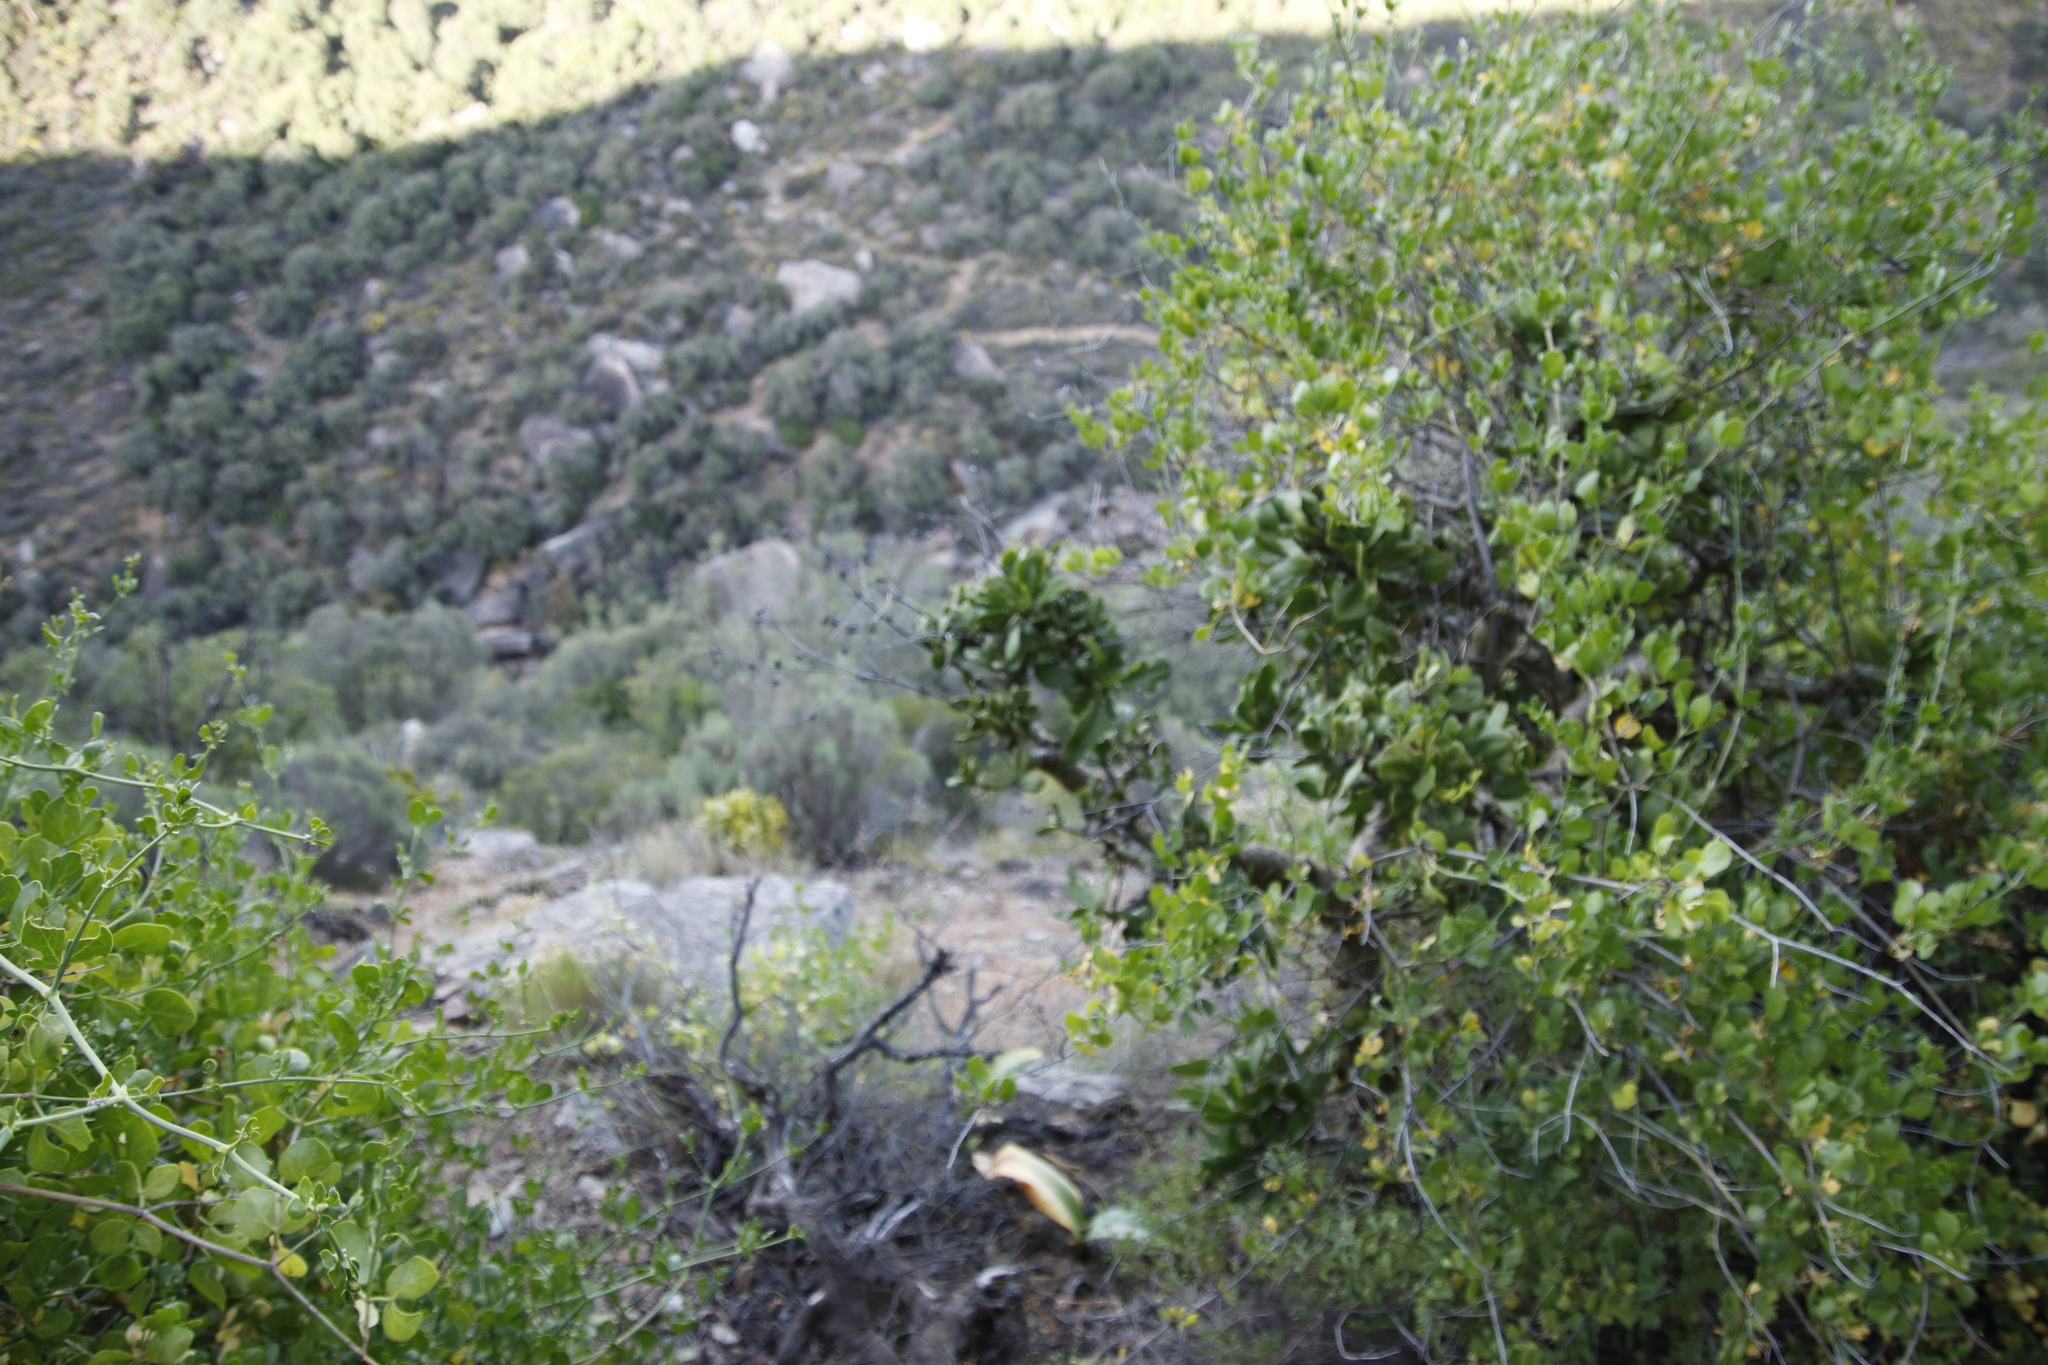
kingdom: Plantae
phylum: Tracheophyta
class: Magnoliopsida
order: Saxifragales
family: Crassulaceae
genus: Tylecodon
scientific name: Tylecodon paniculatus
